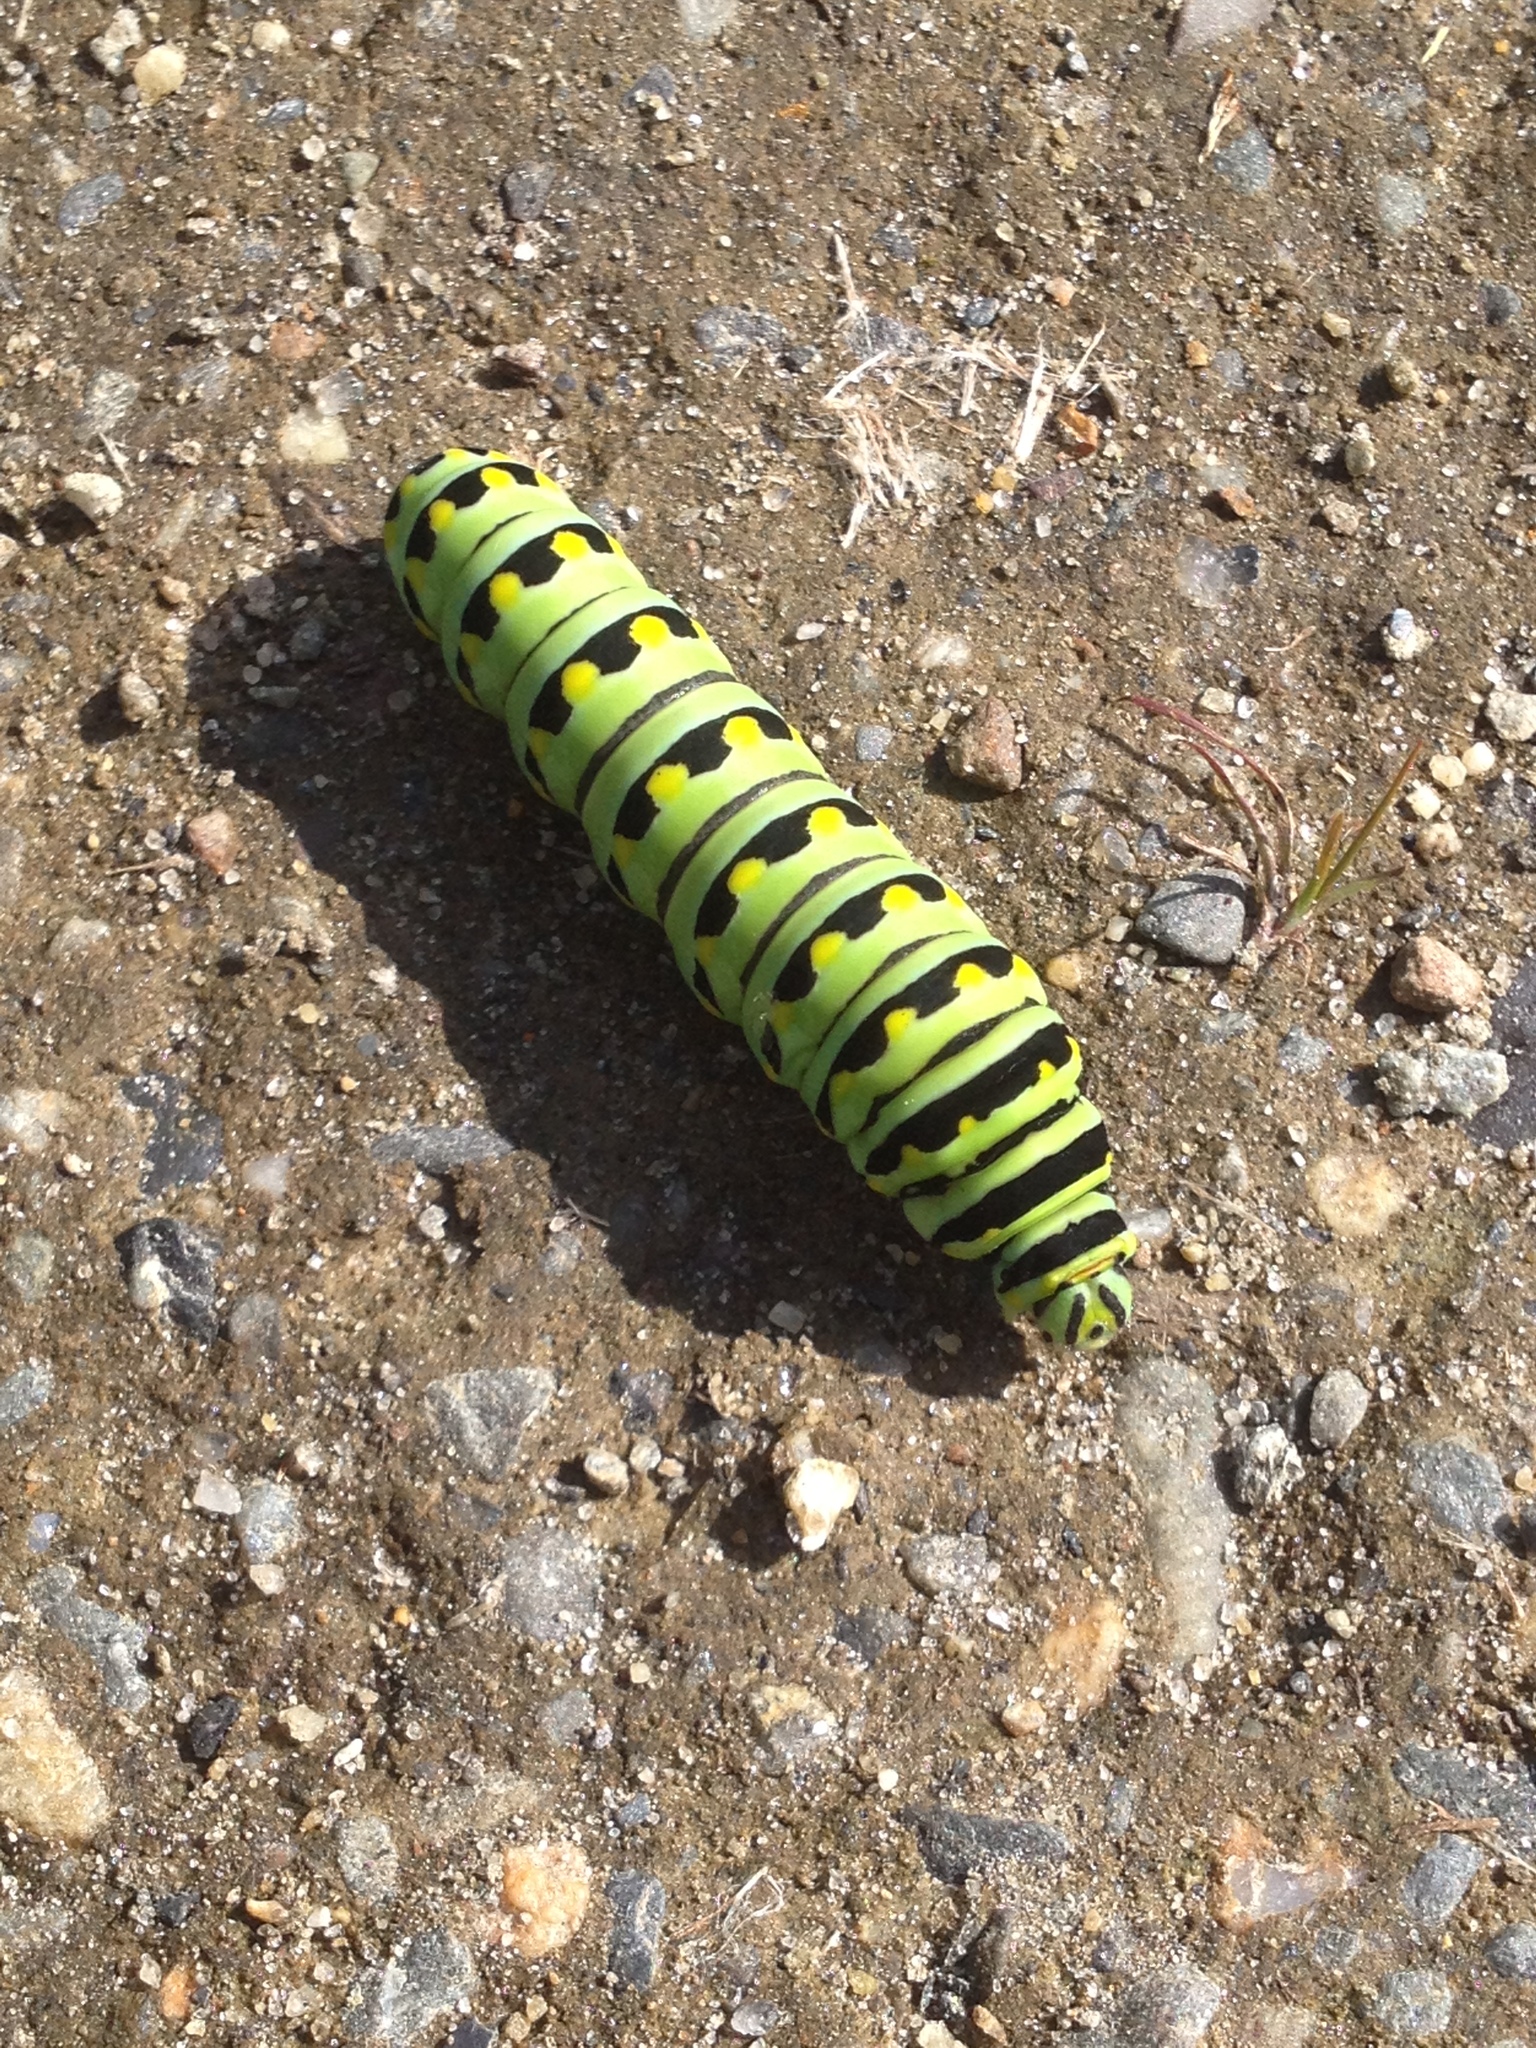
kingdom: Animalia
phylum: Arthropoda
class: Insecta
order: Lepidoptera
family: Papilionidae
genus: Papilio
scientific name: Papilio polyxenes
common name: Black swallowtail
